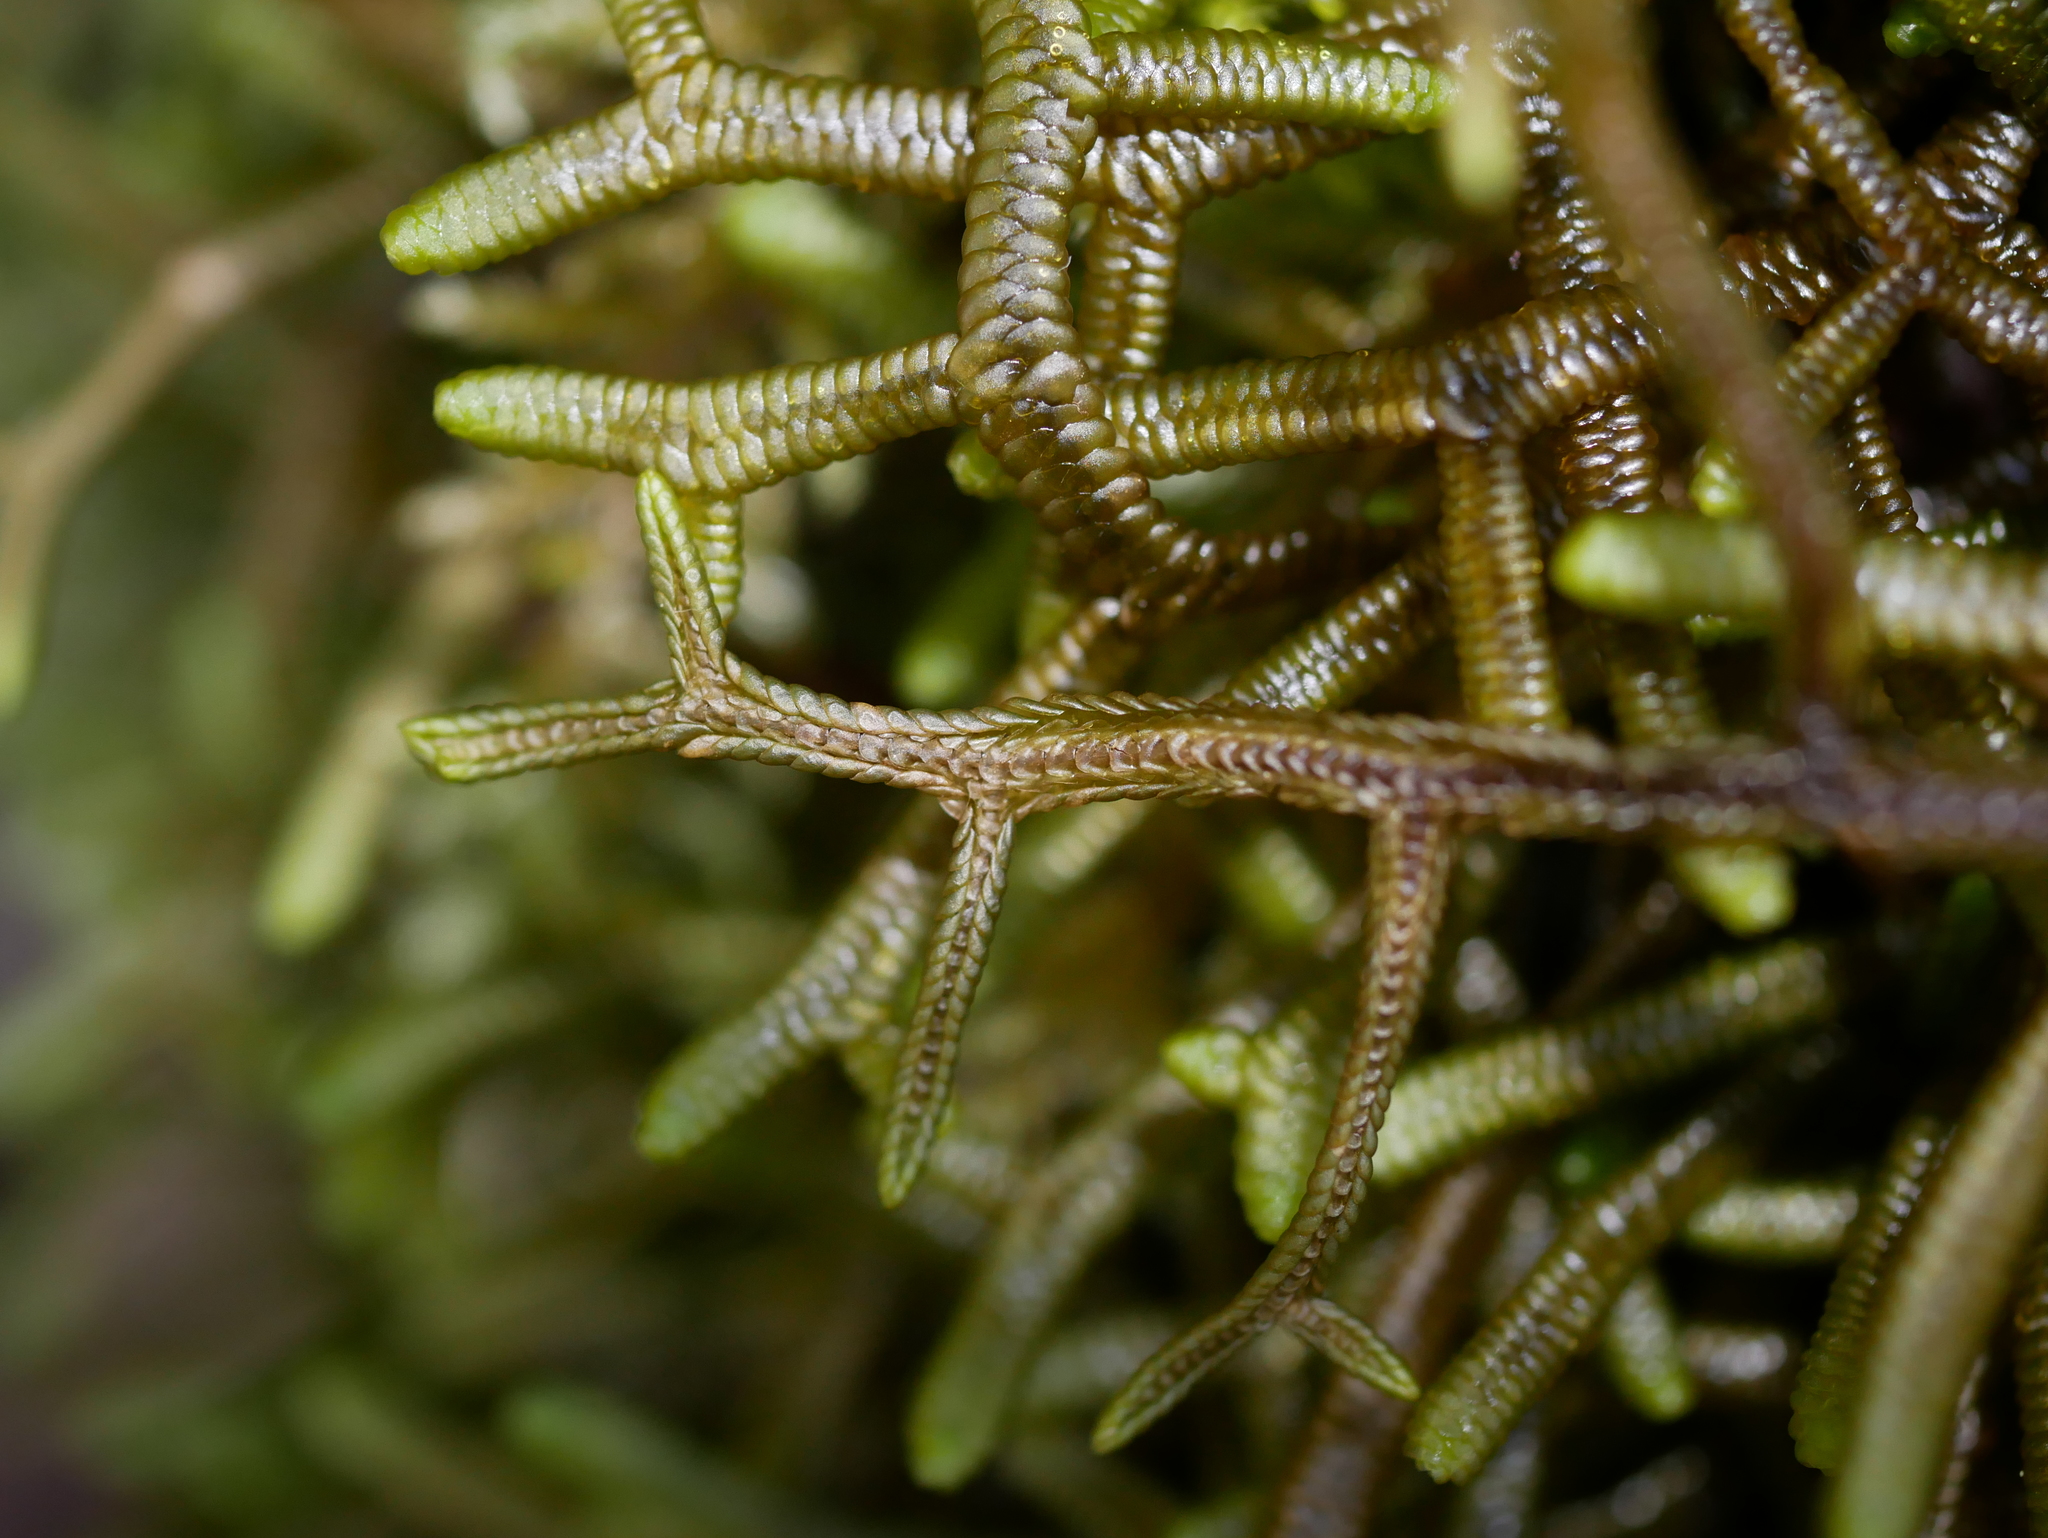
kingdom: Plantae
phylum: Marchantiophyta
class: Jungermanniopsida
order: Porellales
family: Porellaceae
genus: Porella
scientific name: Porella elegantula
